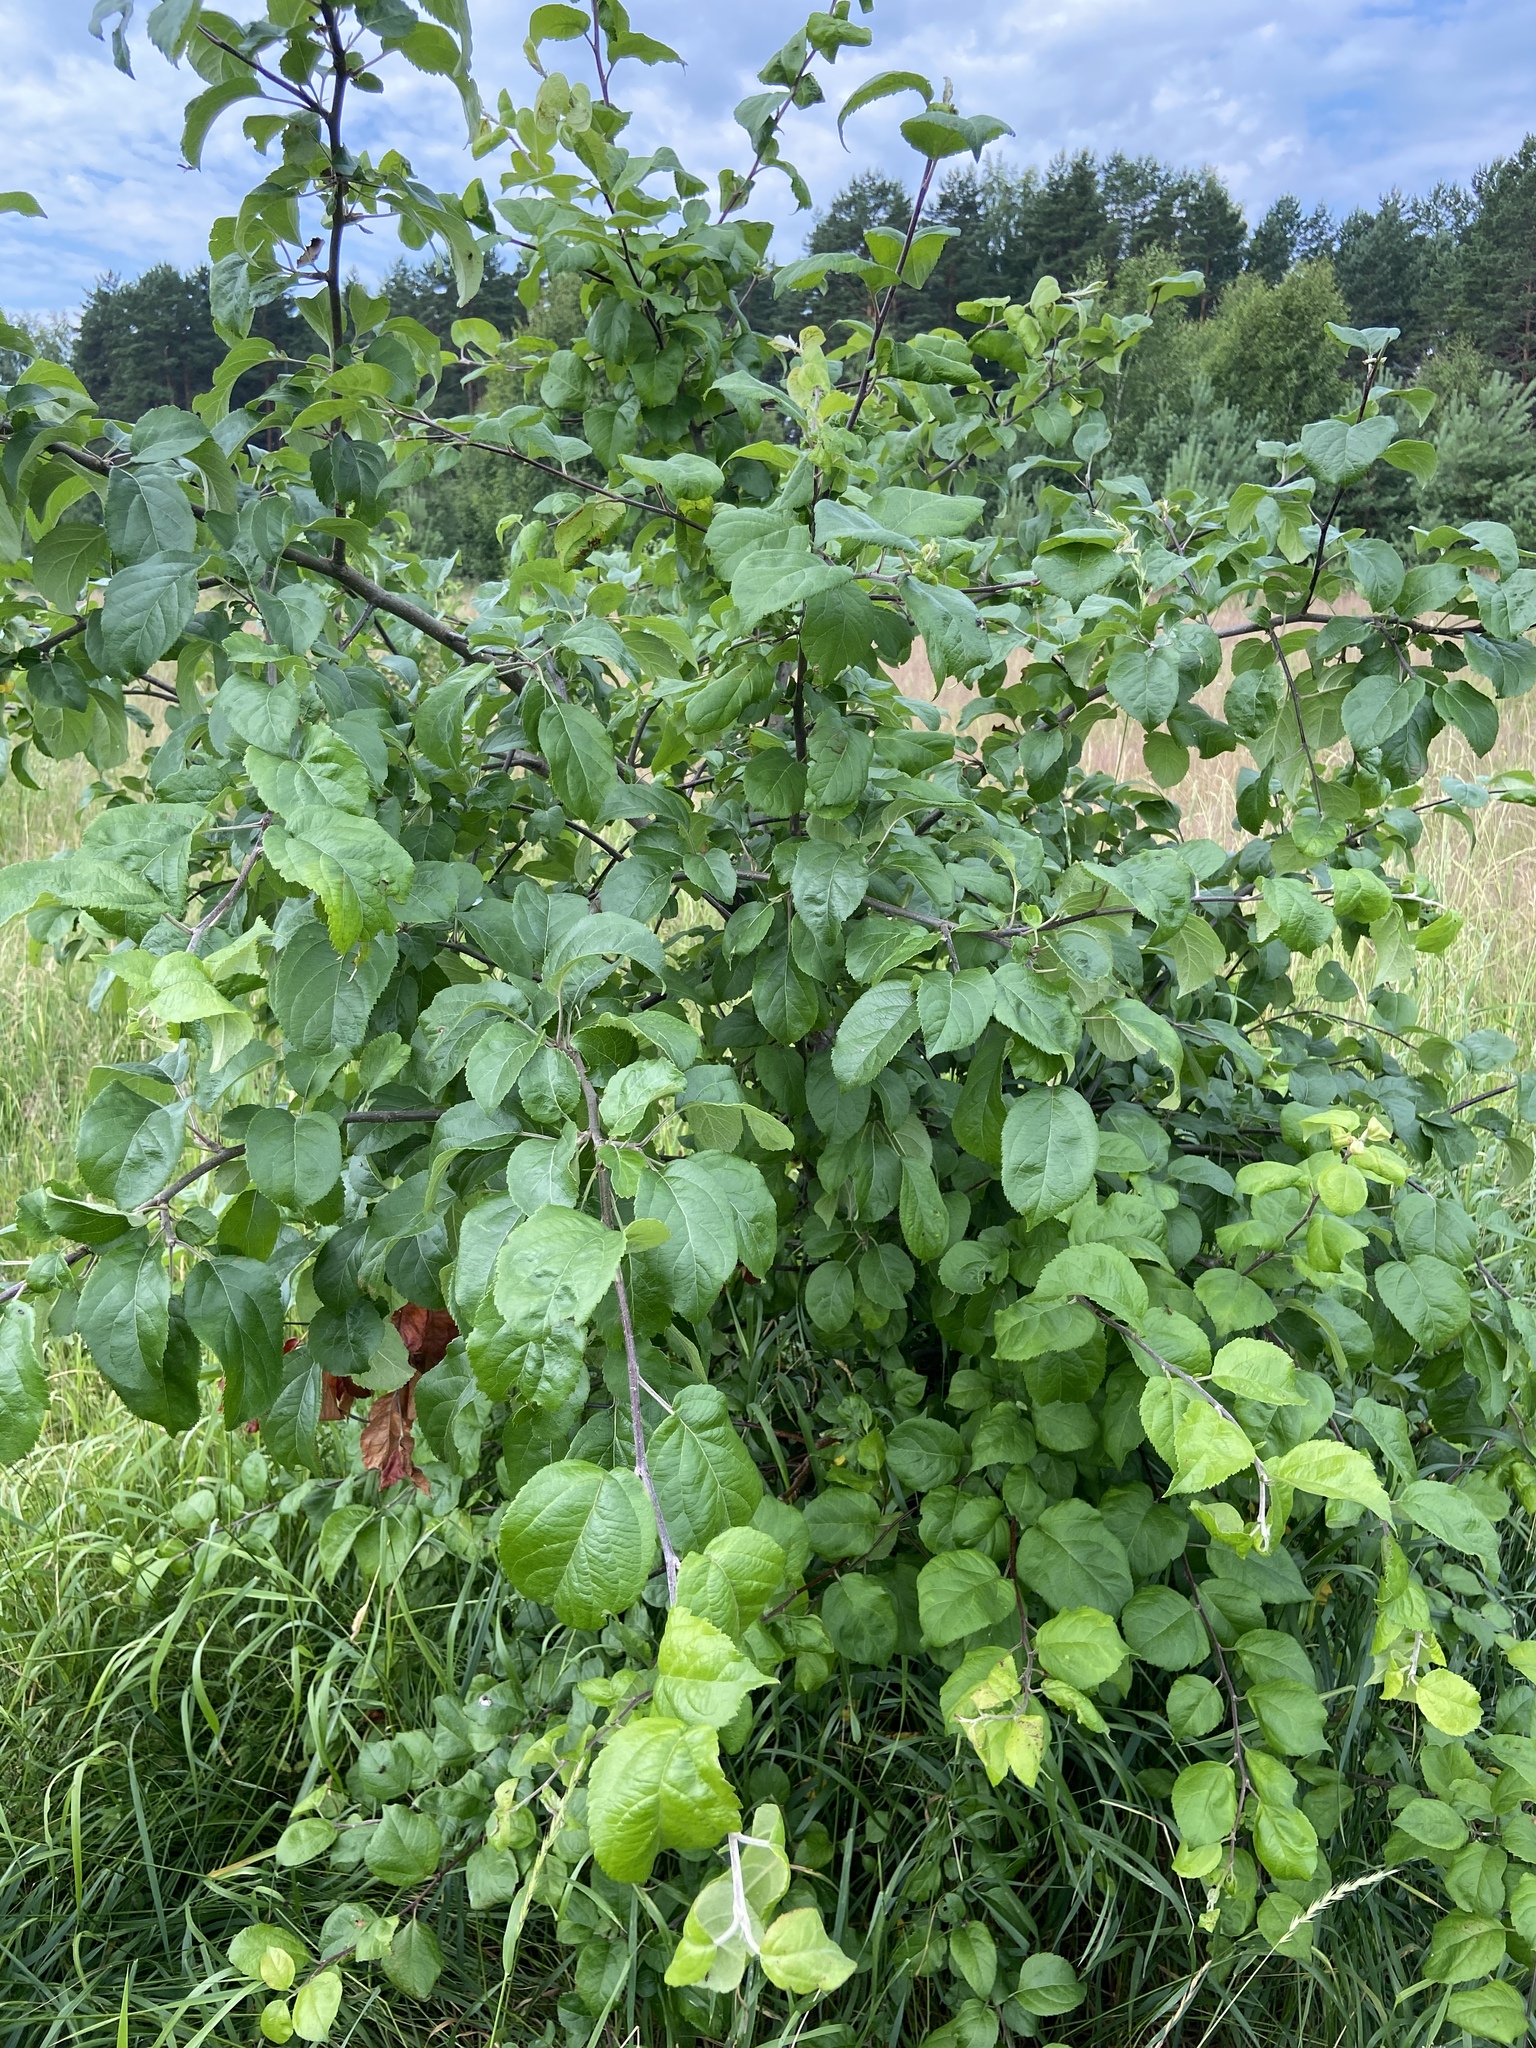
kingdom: Plantae
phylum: Tracheophyta
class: Magnoliopsida
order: Rosales
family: Rosaceae
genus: Malus
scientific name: Malus domestica
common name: Apple
